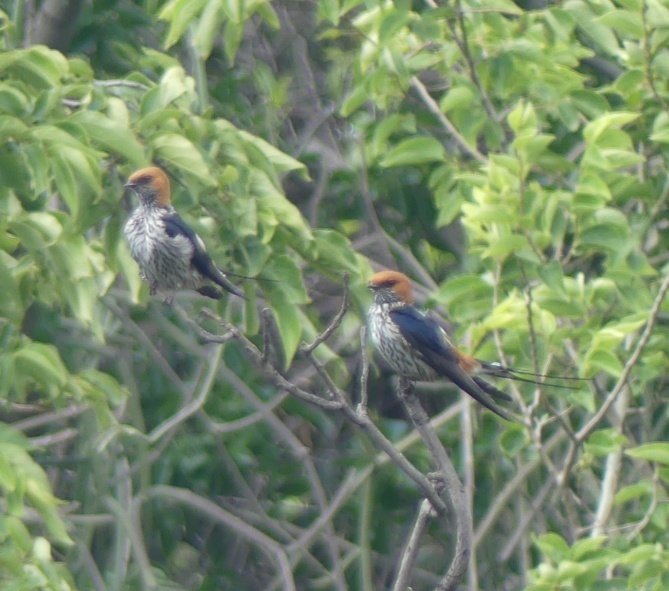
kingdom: Animalia
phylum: Chordata
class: Aves
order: Passeriformes
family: Hirundinidae
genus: Cecropis
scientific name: Cecropis abyssinica
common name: Lesser striped-swallow
